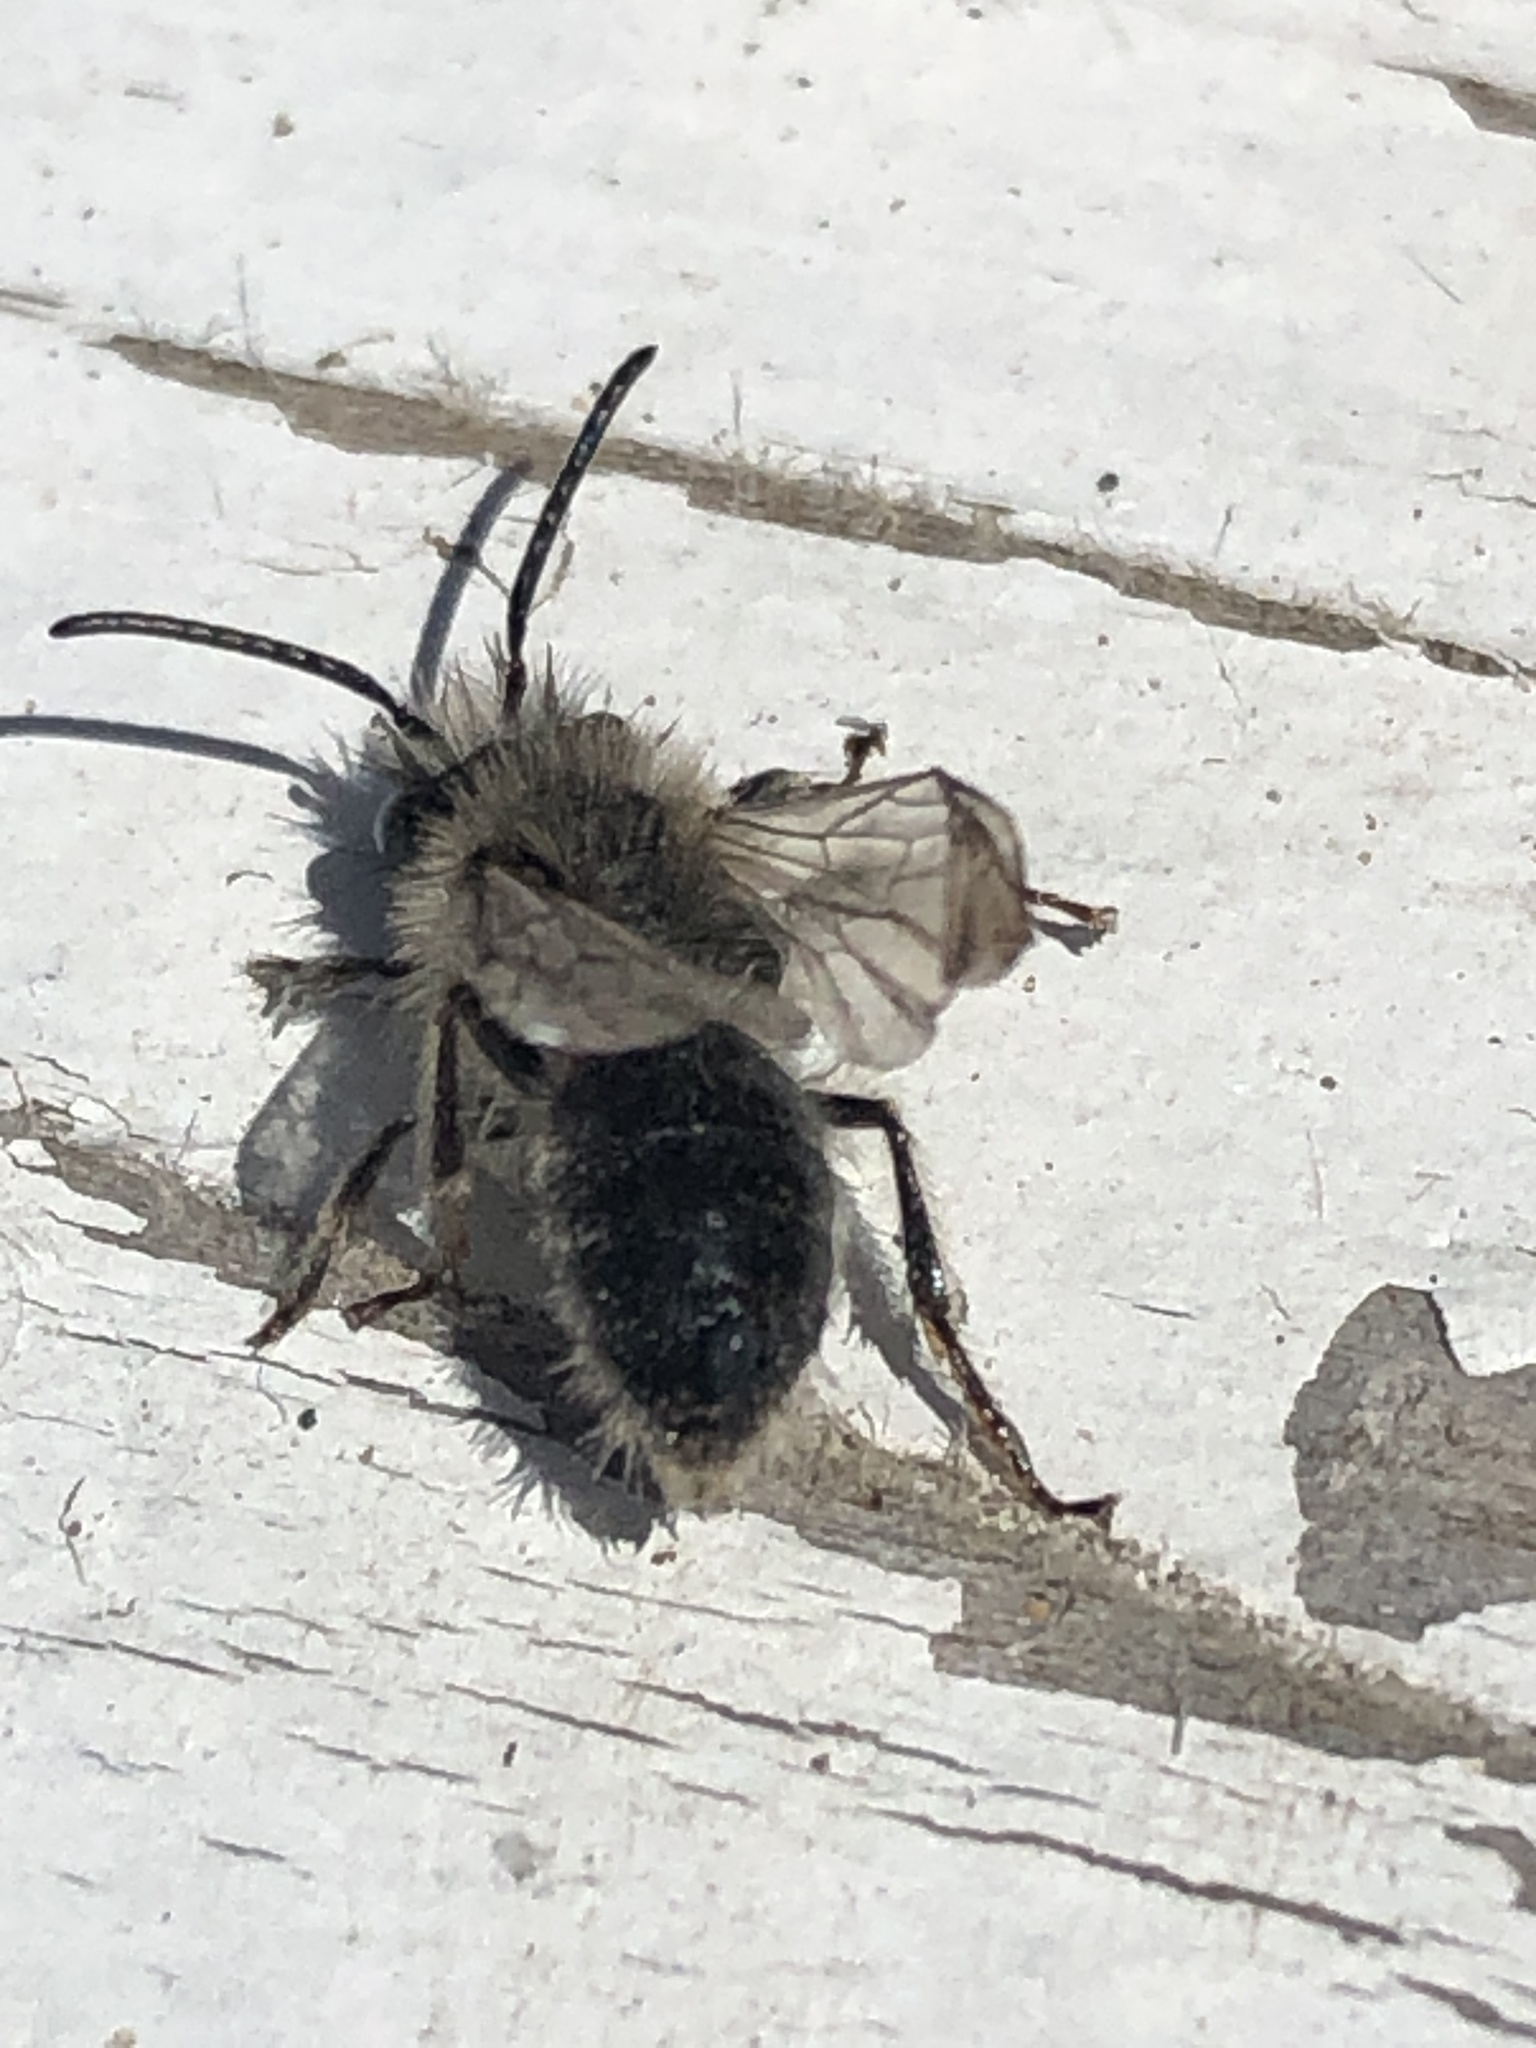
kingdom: Animalia
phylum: Arthropoda
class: Insecta
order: Hymenoptera
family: Andrenidae
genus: Andrena
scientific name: Andrena frigida
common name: Frigid mining bee
